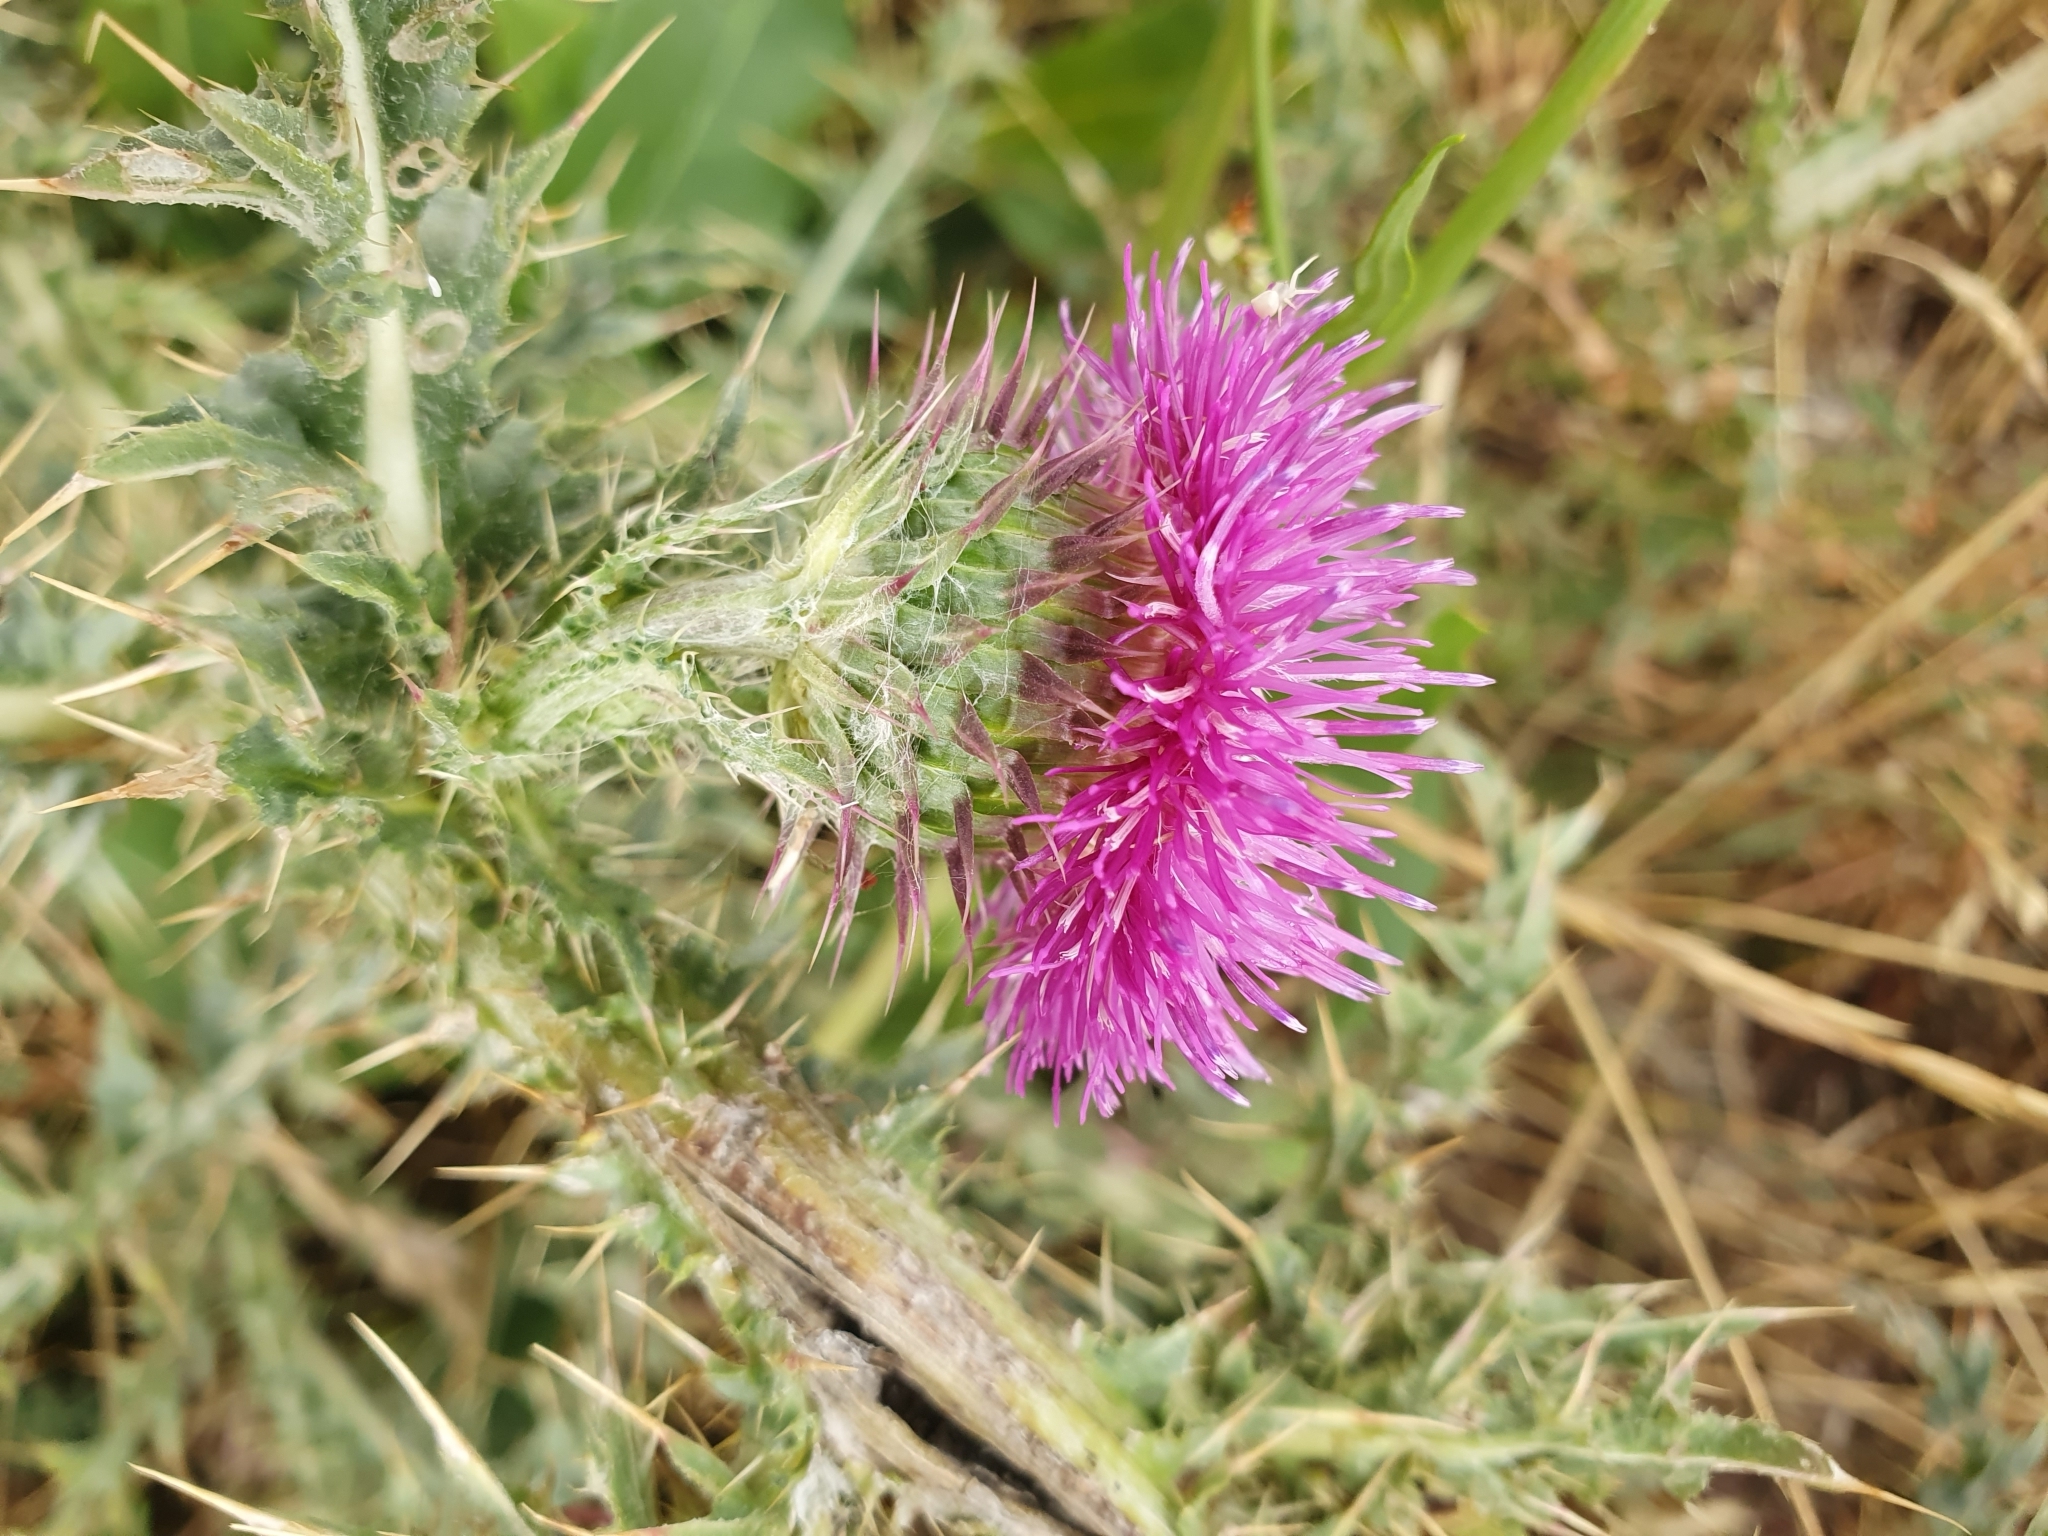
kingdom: Plantae
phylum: Tracheophyta
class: Magnoliopsida
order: Asterales
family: Asteraceae
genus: Carduus
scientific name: Carduus acanthoides
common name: Plumeless thistle
